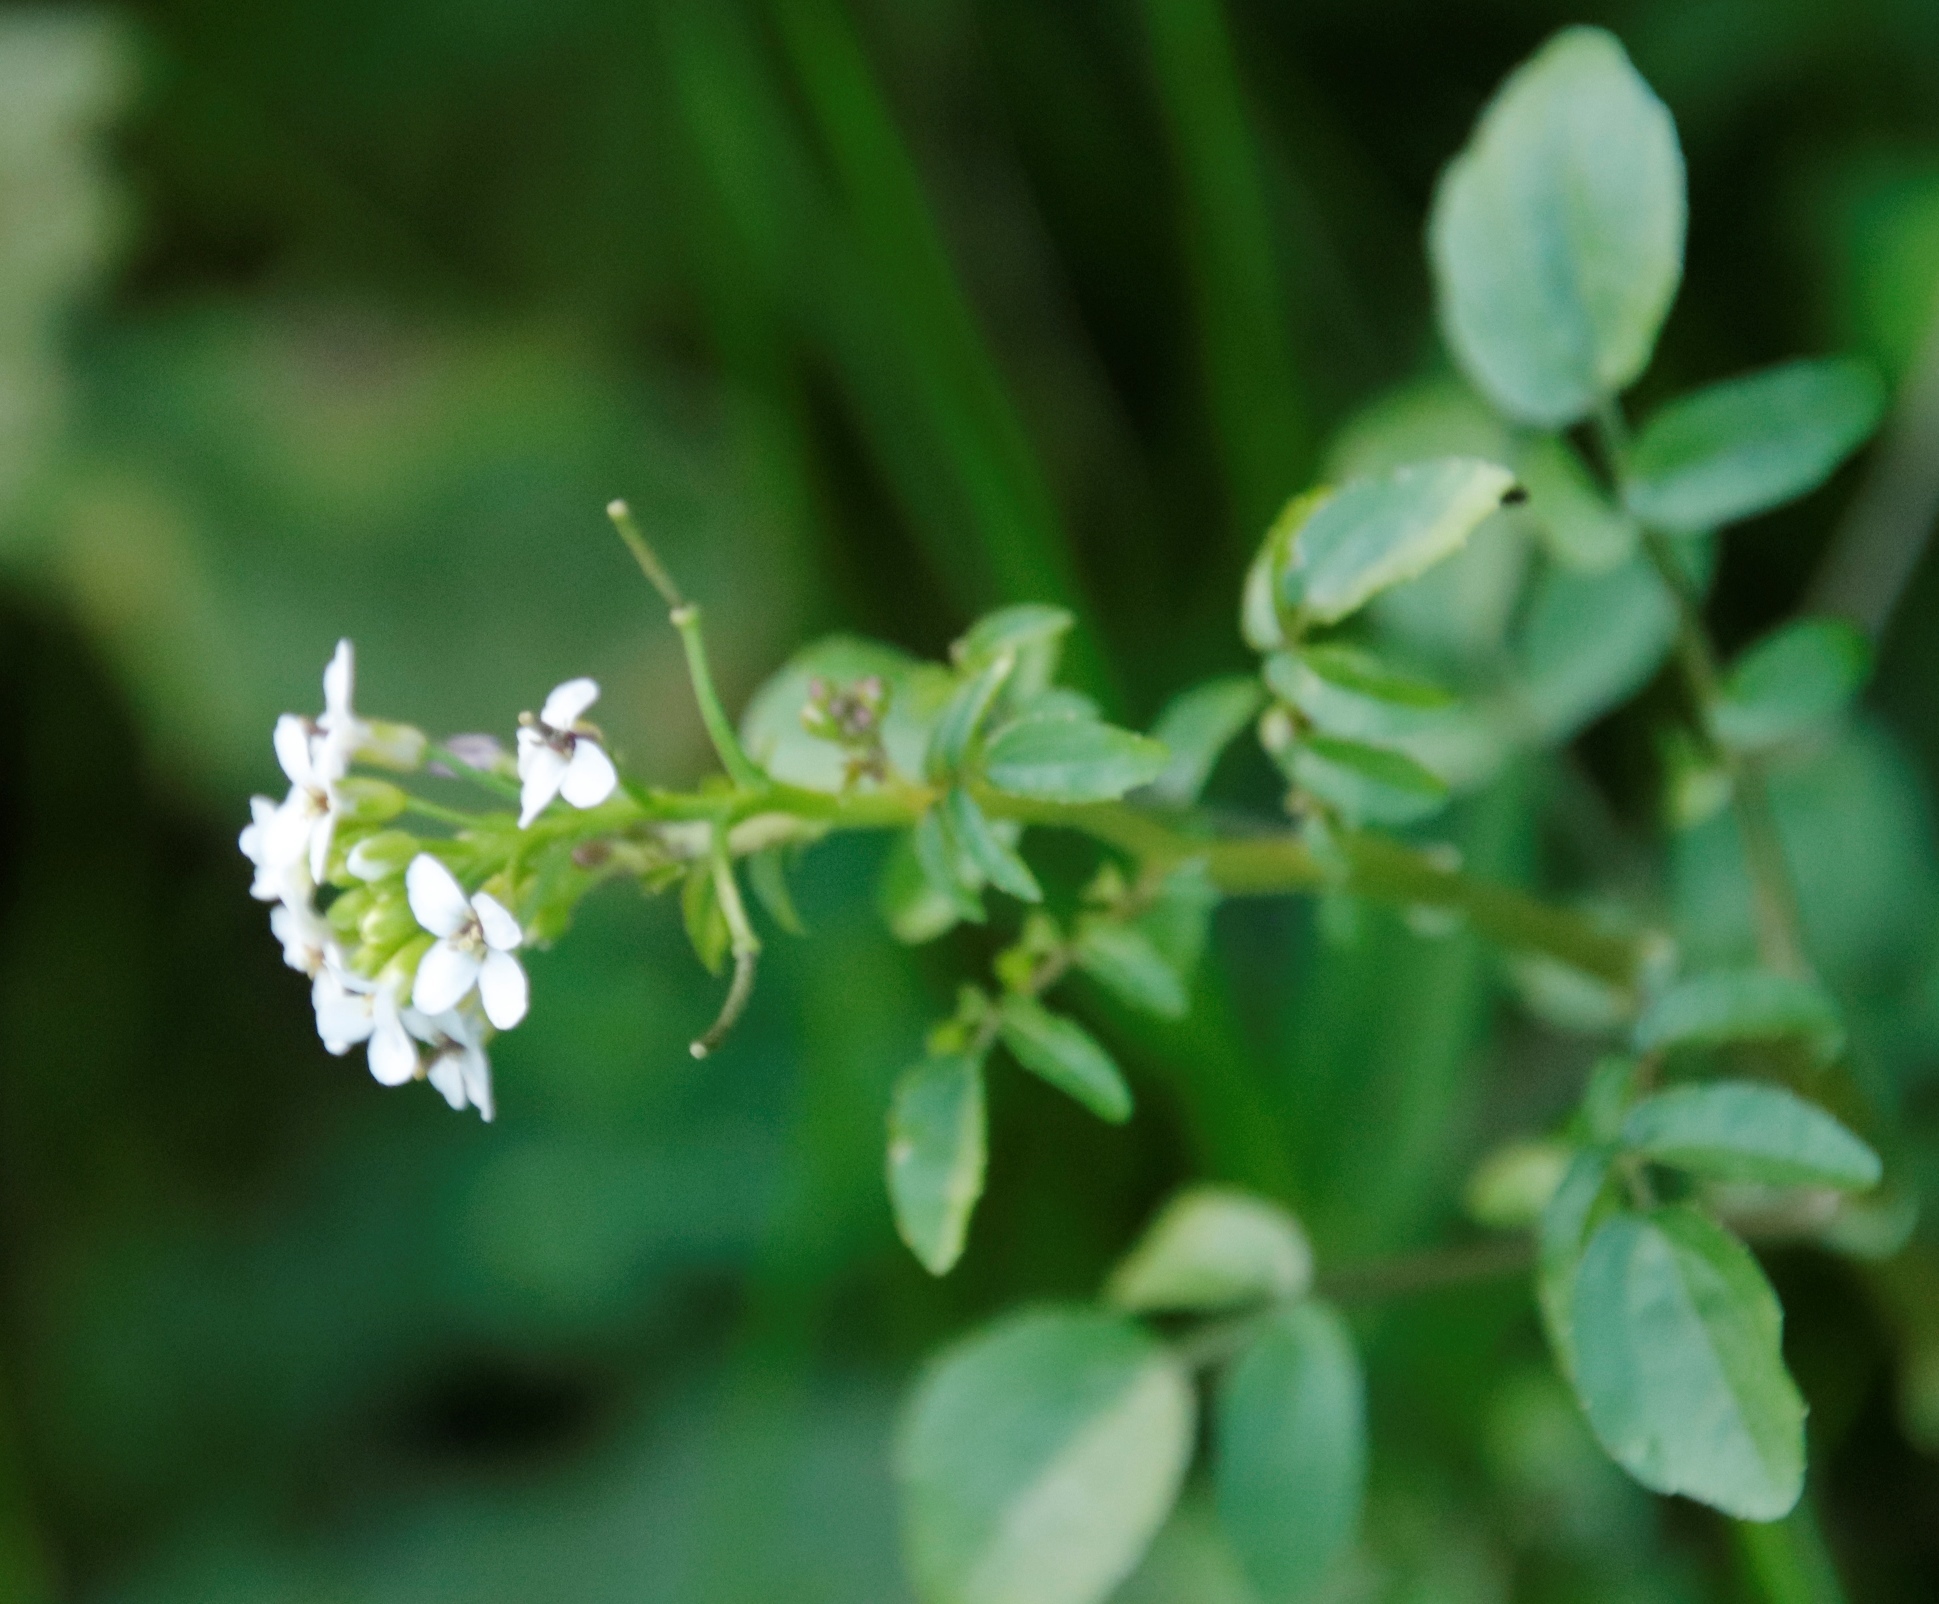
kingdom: Plantae
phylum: Tracheophyta
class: Magnoliopsida
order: Brassicales
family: Brassicaceae
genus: Nasturtium
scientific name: Nasturtium officinale
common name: Watercress
